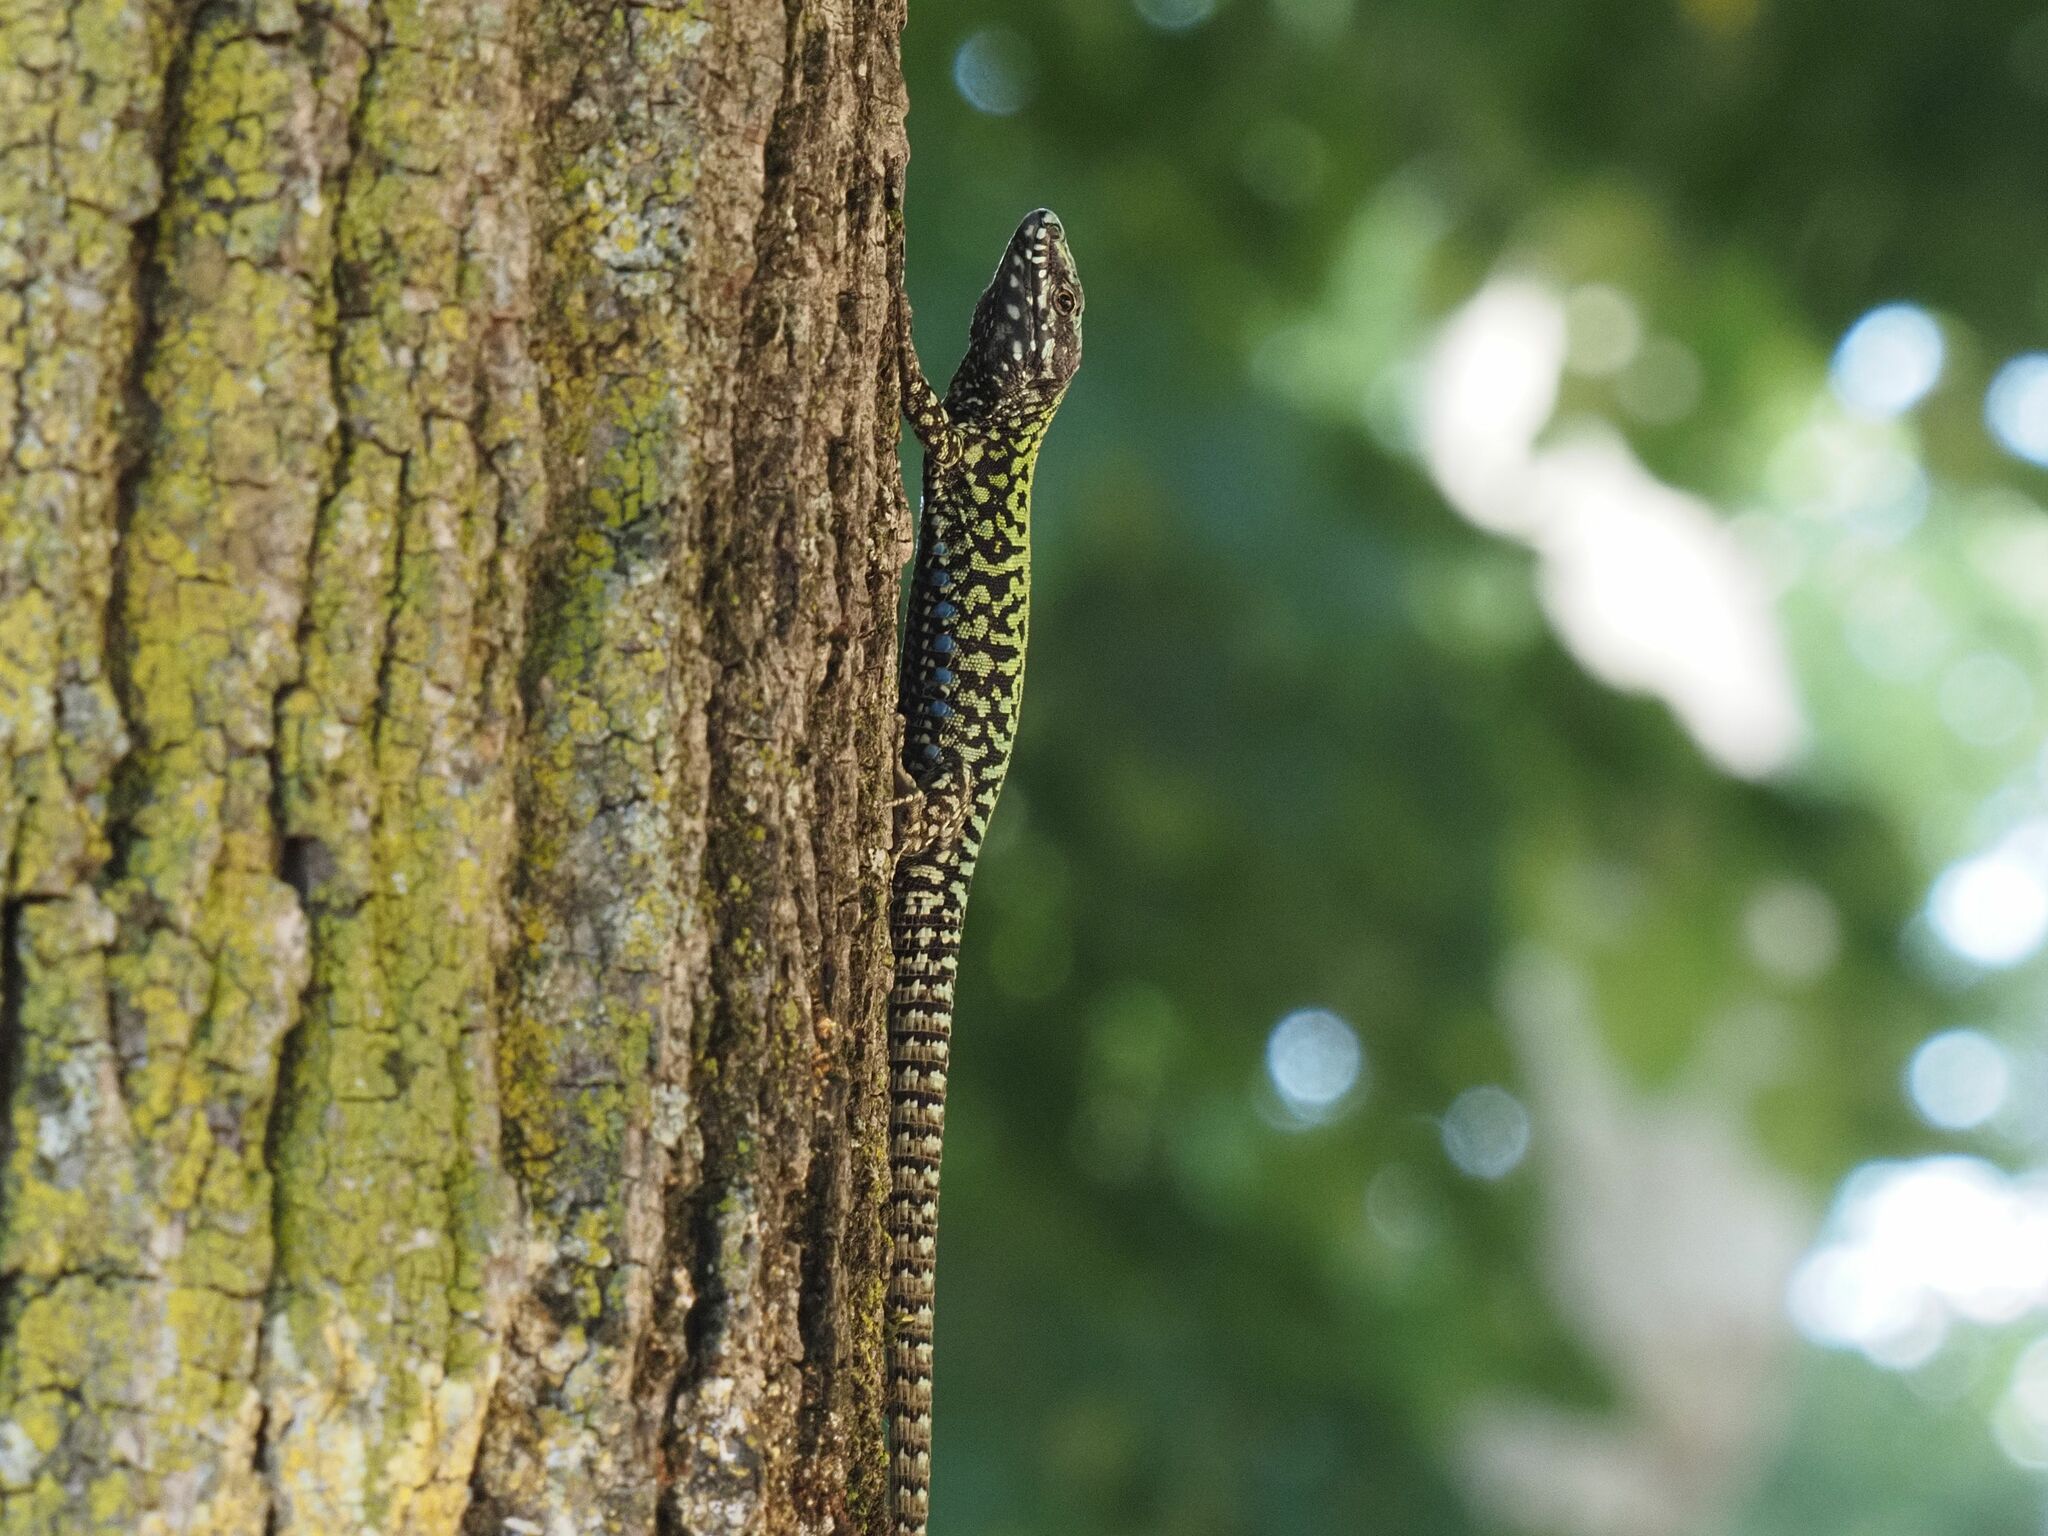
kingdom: Animalia
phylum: Chordata
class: Squamata
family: Lacertidae
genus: Podarcis
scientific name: Podarcis muralis
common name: Common wall lizard
